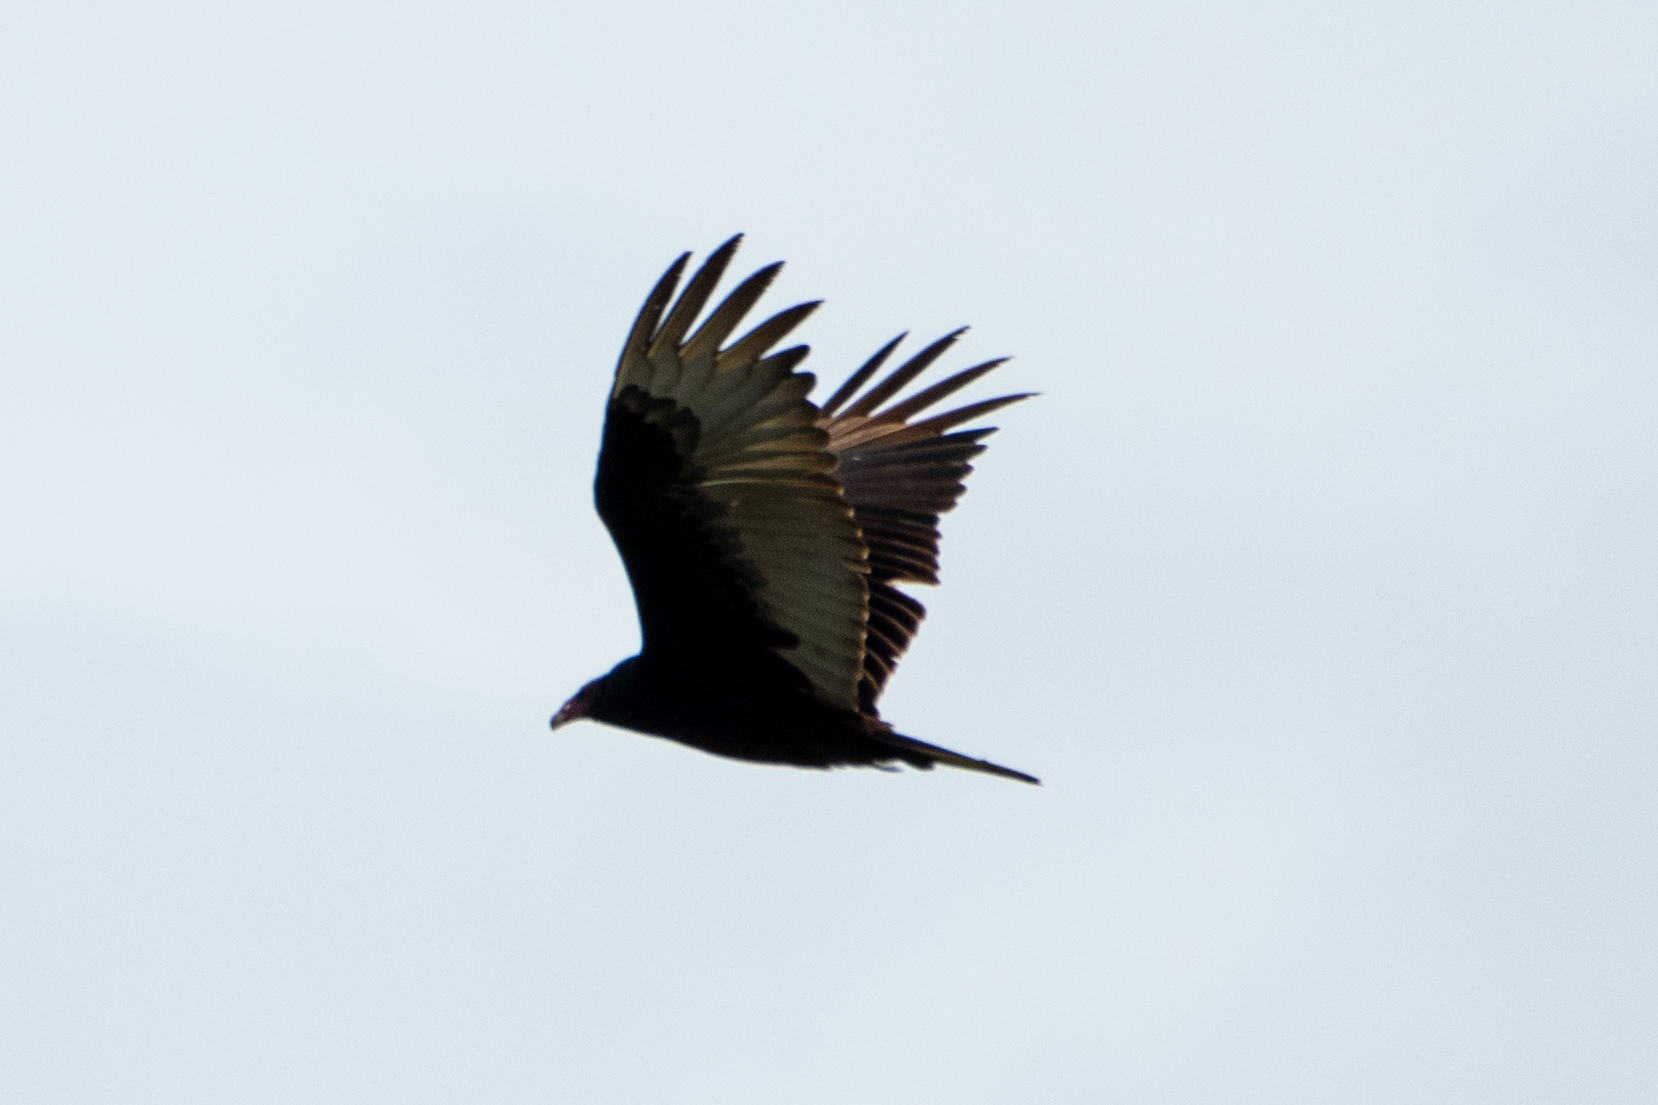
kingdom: Animalia
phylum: Chordata
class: Aves
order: Accipitriformes
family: Cathartidae
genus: Cathartes
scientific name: Cathartes aura
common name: Turkey vulture
